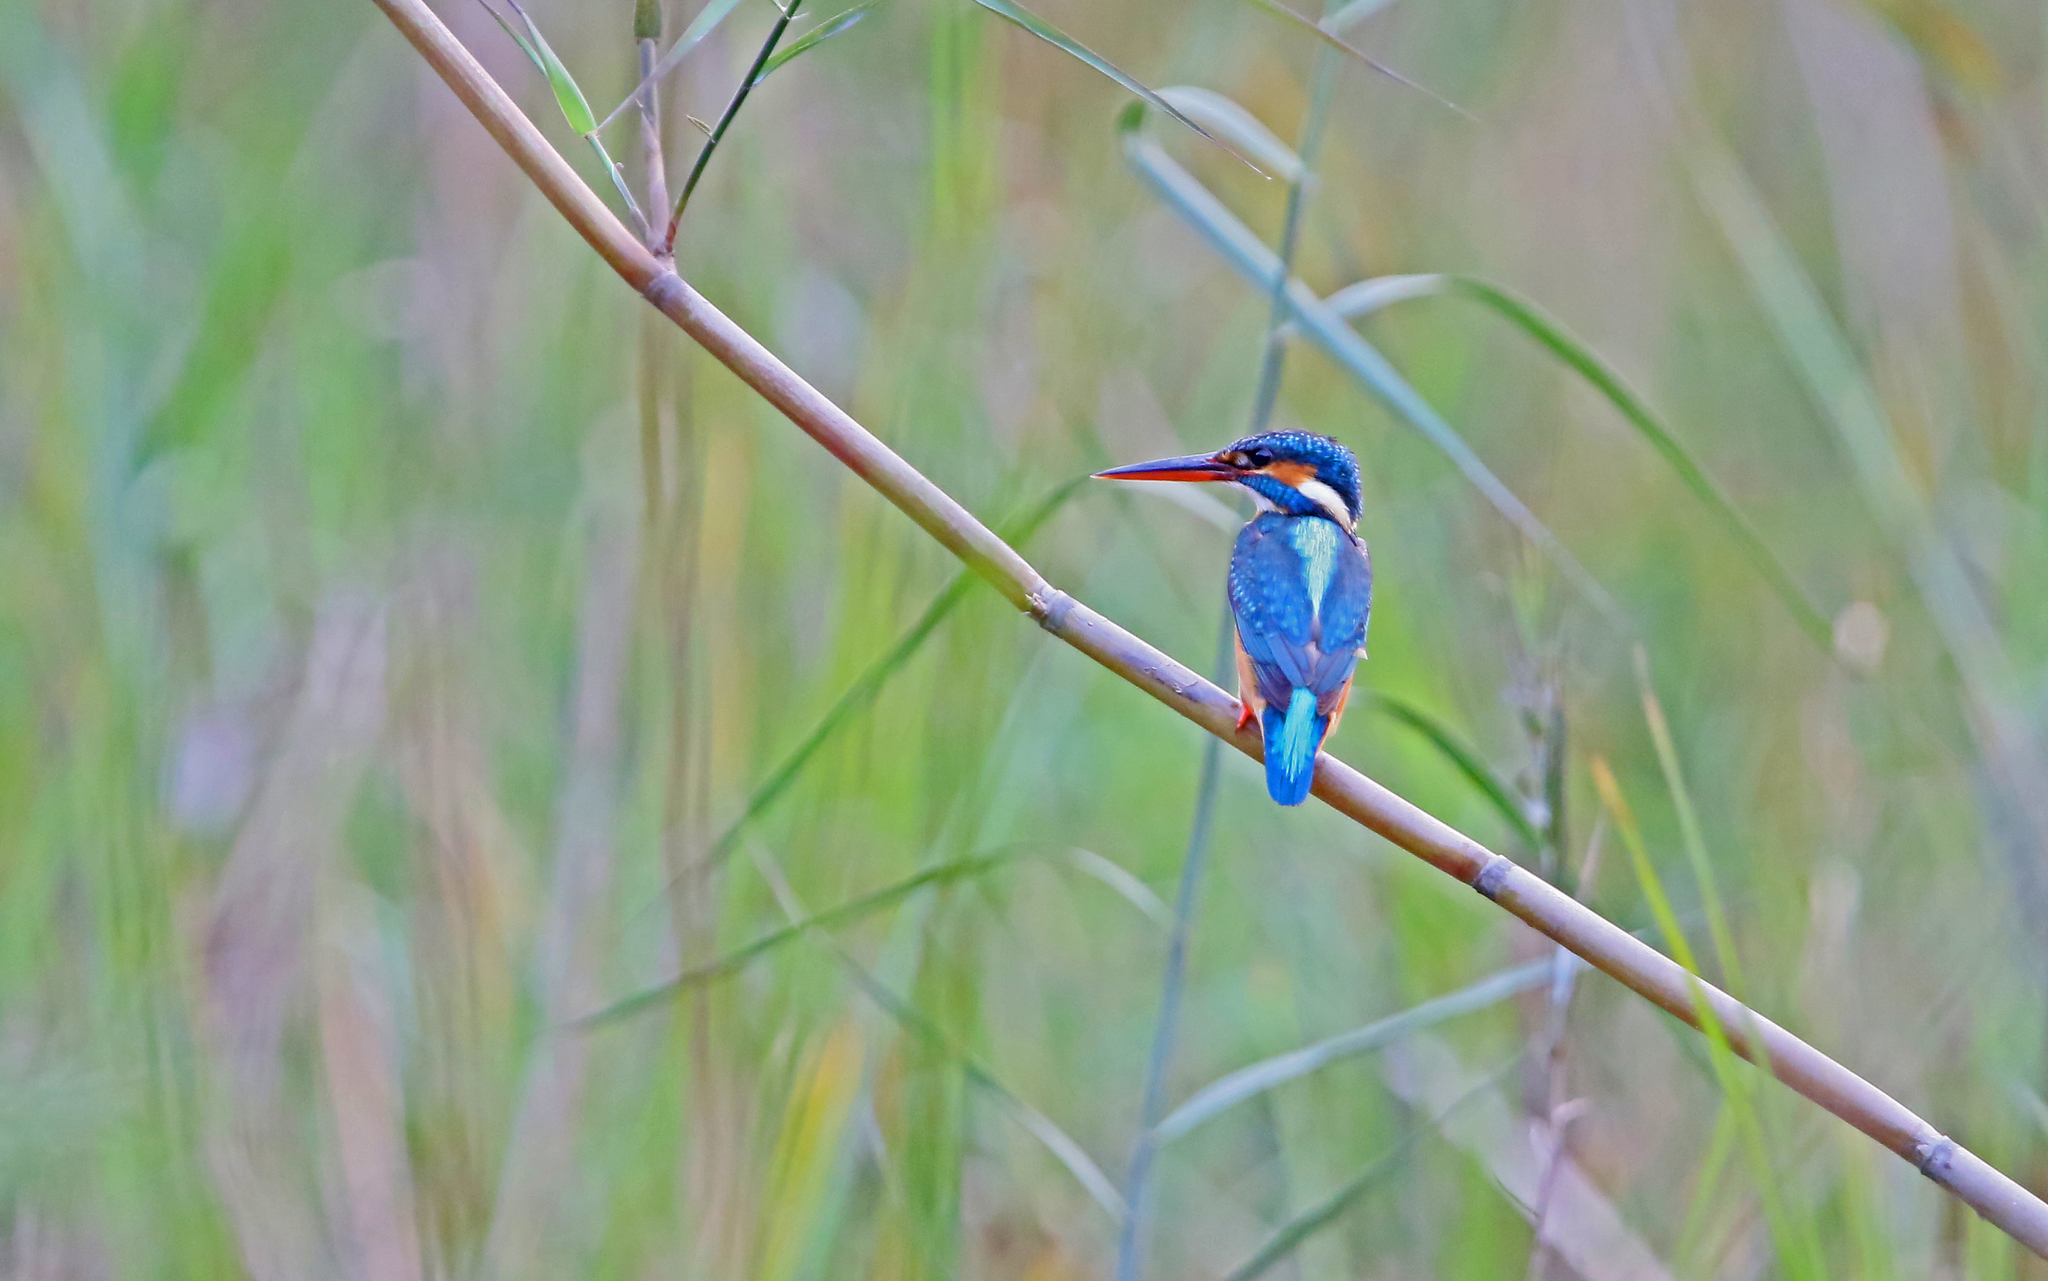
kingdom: Animalia
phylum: Chordata
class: Aves
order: Coraciiformes
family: Alcedinidae
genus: Alcedo
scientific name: Alcedo atthis
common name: Common kingfisher
